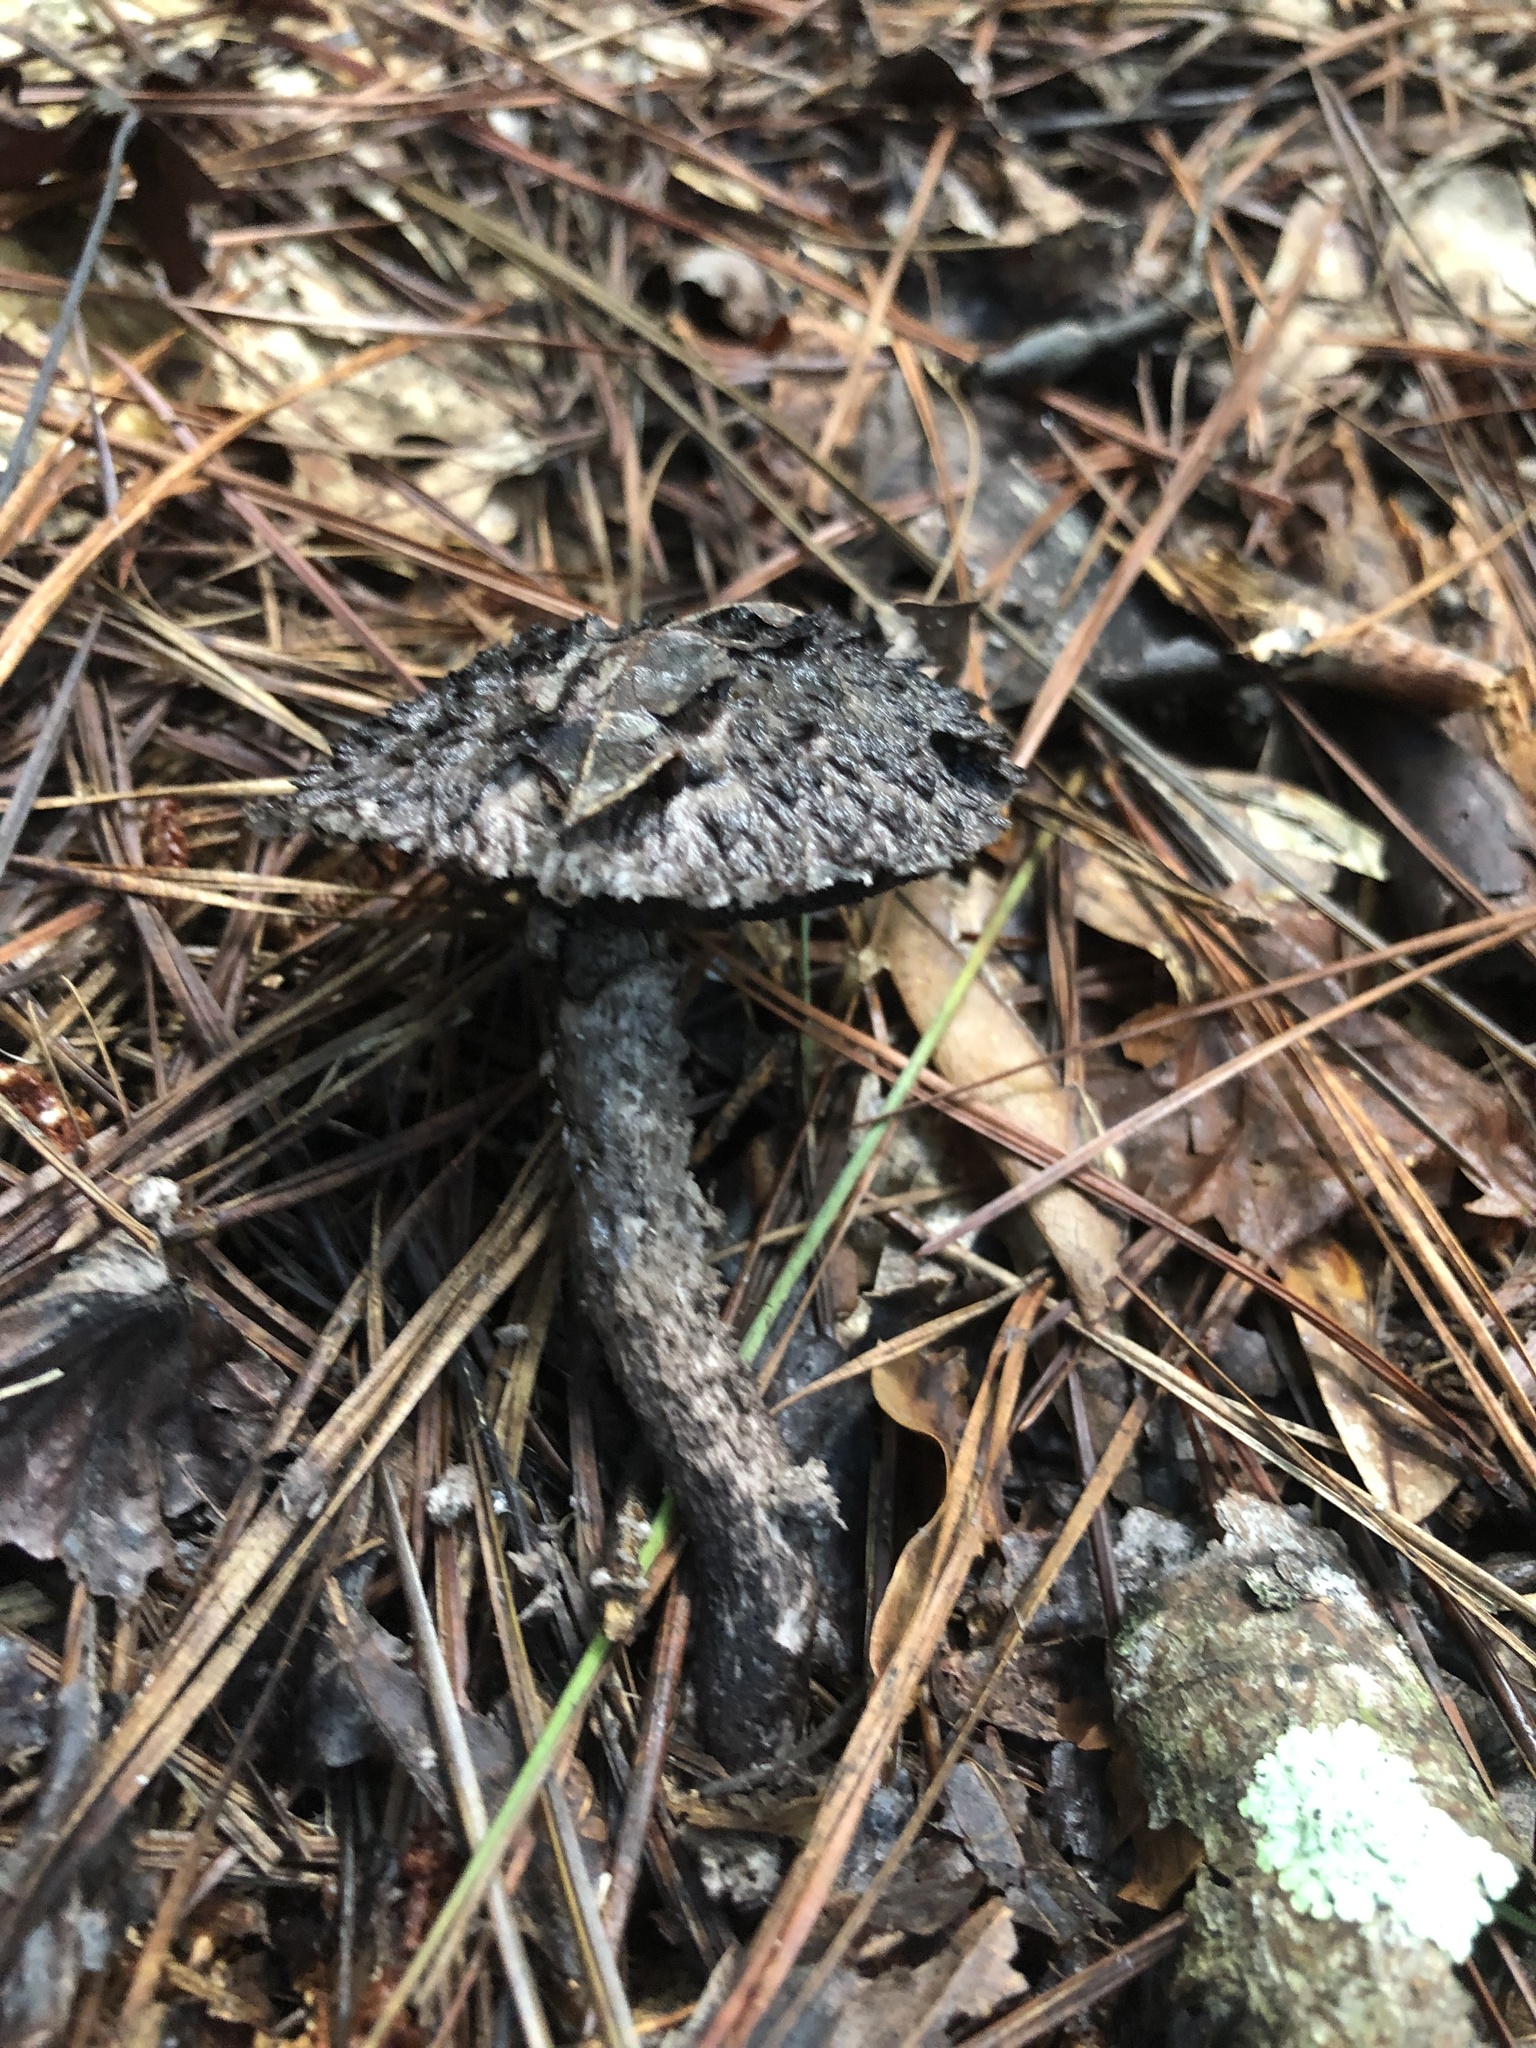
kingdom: Fungi
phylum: Basidiomycota
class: Agaricomycetes
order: Boletales
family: Boletaceae
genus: Strobilomyces
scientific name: Strobilomyces strobilaceus
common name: Old man of the woods
